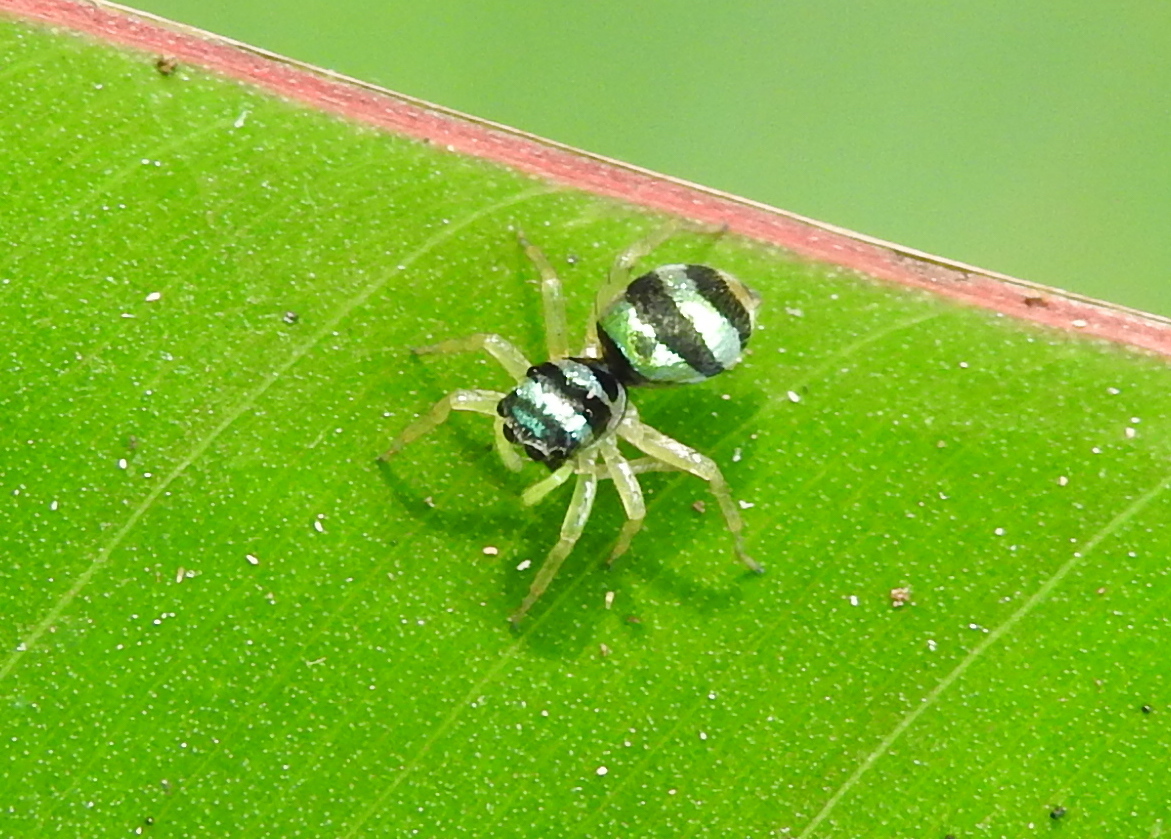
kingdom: Animalia
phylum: Arthropoda
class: Arachnida
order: Araneae
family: Salticidae
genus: Phintella
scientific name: Phintella vittata
